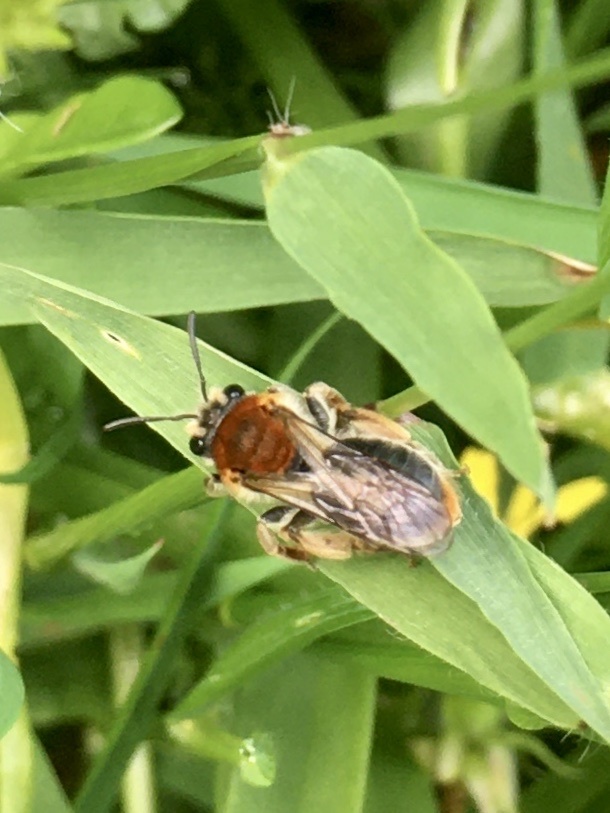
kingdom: Animalia
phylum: Arthropoda
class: Insecta
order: Hymenoptera
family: Andrenidae
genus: Andrena
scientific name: Andrena haemorrhoa
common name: Early mining bee
